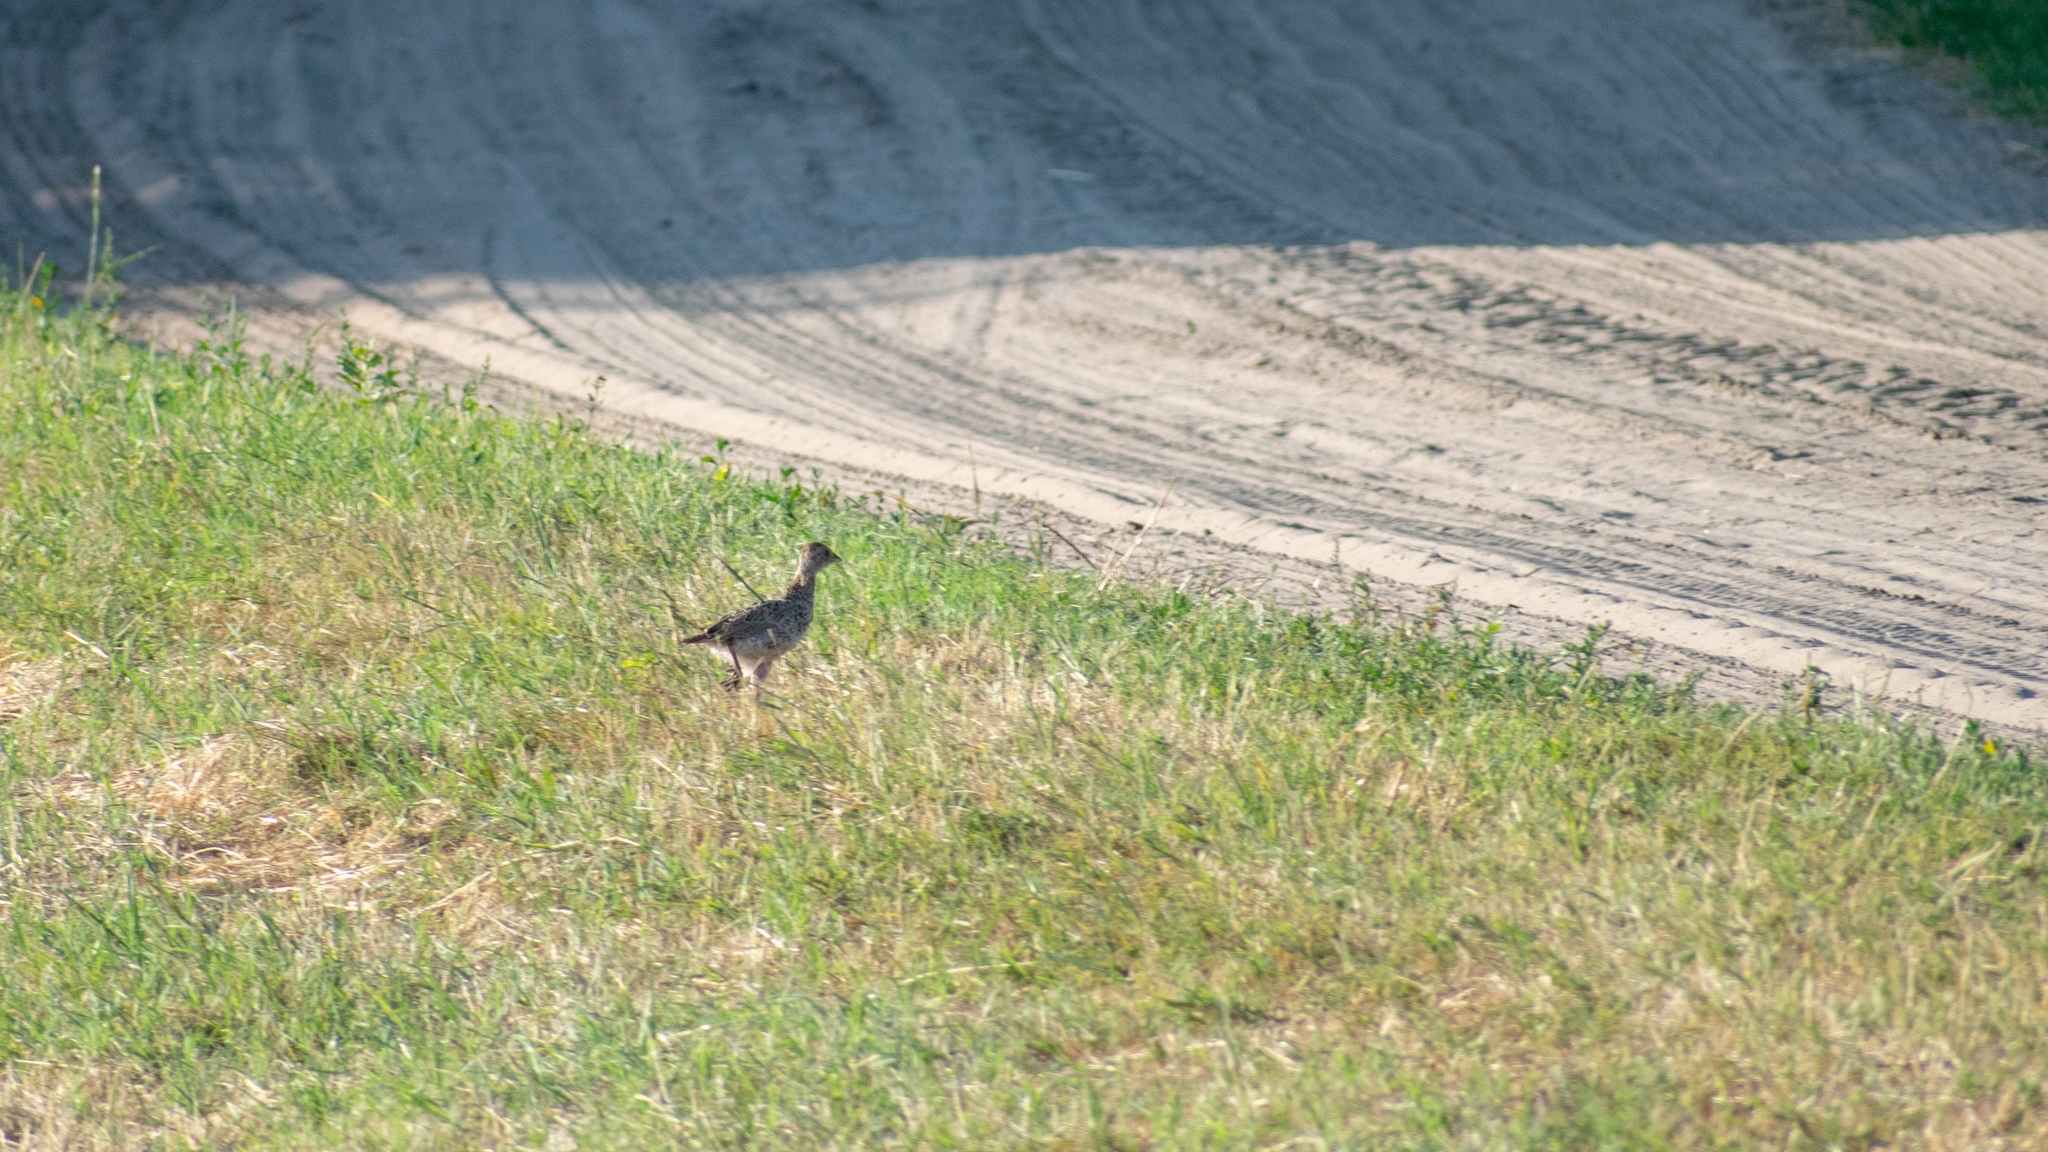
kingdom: Animalia
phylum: Chordata
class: Aves
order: Galliformes
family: Phasianidae
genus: Phasianus
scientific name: Phasianus colchicus
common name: Common pheasant
